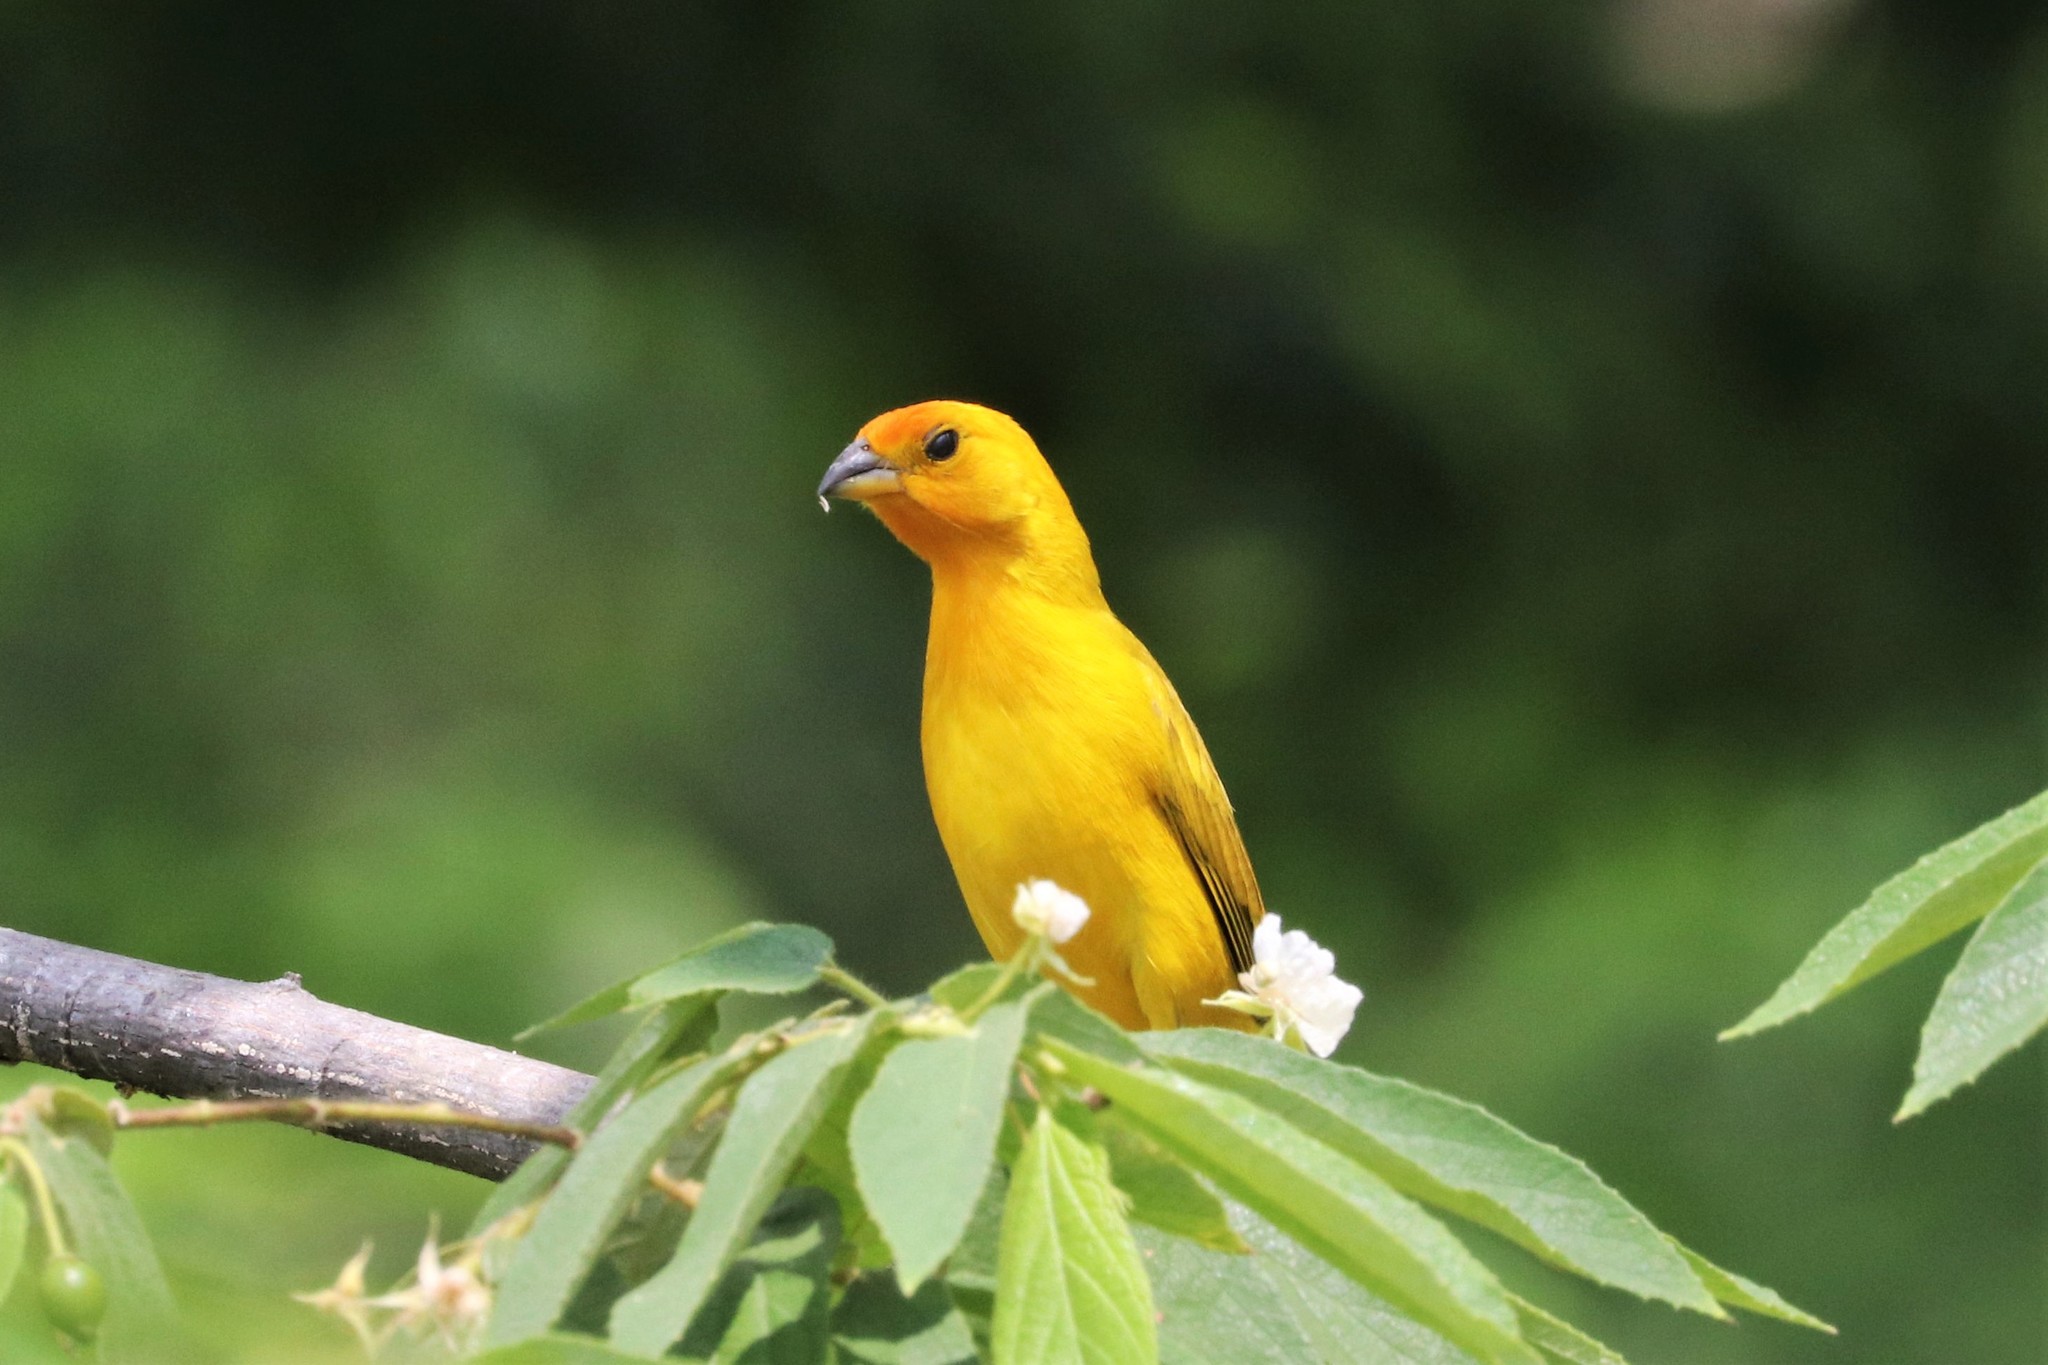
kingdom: Animalia
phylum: Chordata
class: Aves
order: Passeriformes
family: Thraupidae
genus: Sicalis
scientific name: Sicalis flaveola
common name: Saffron finch
